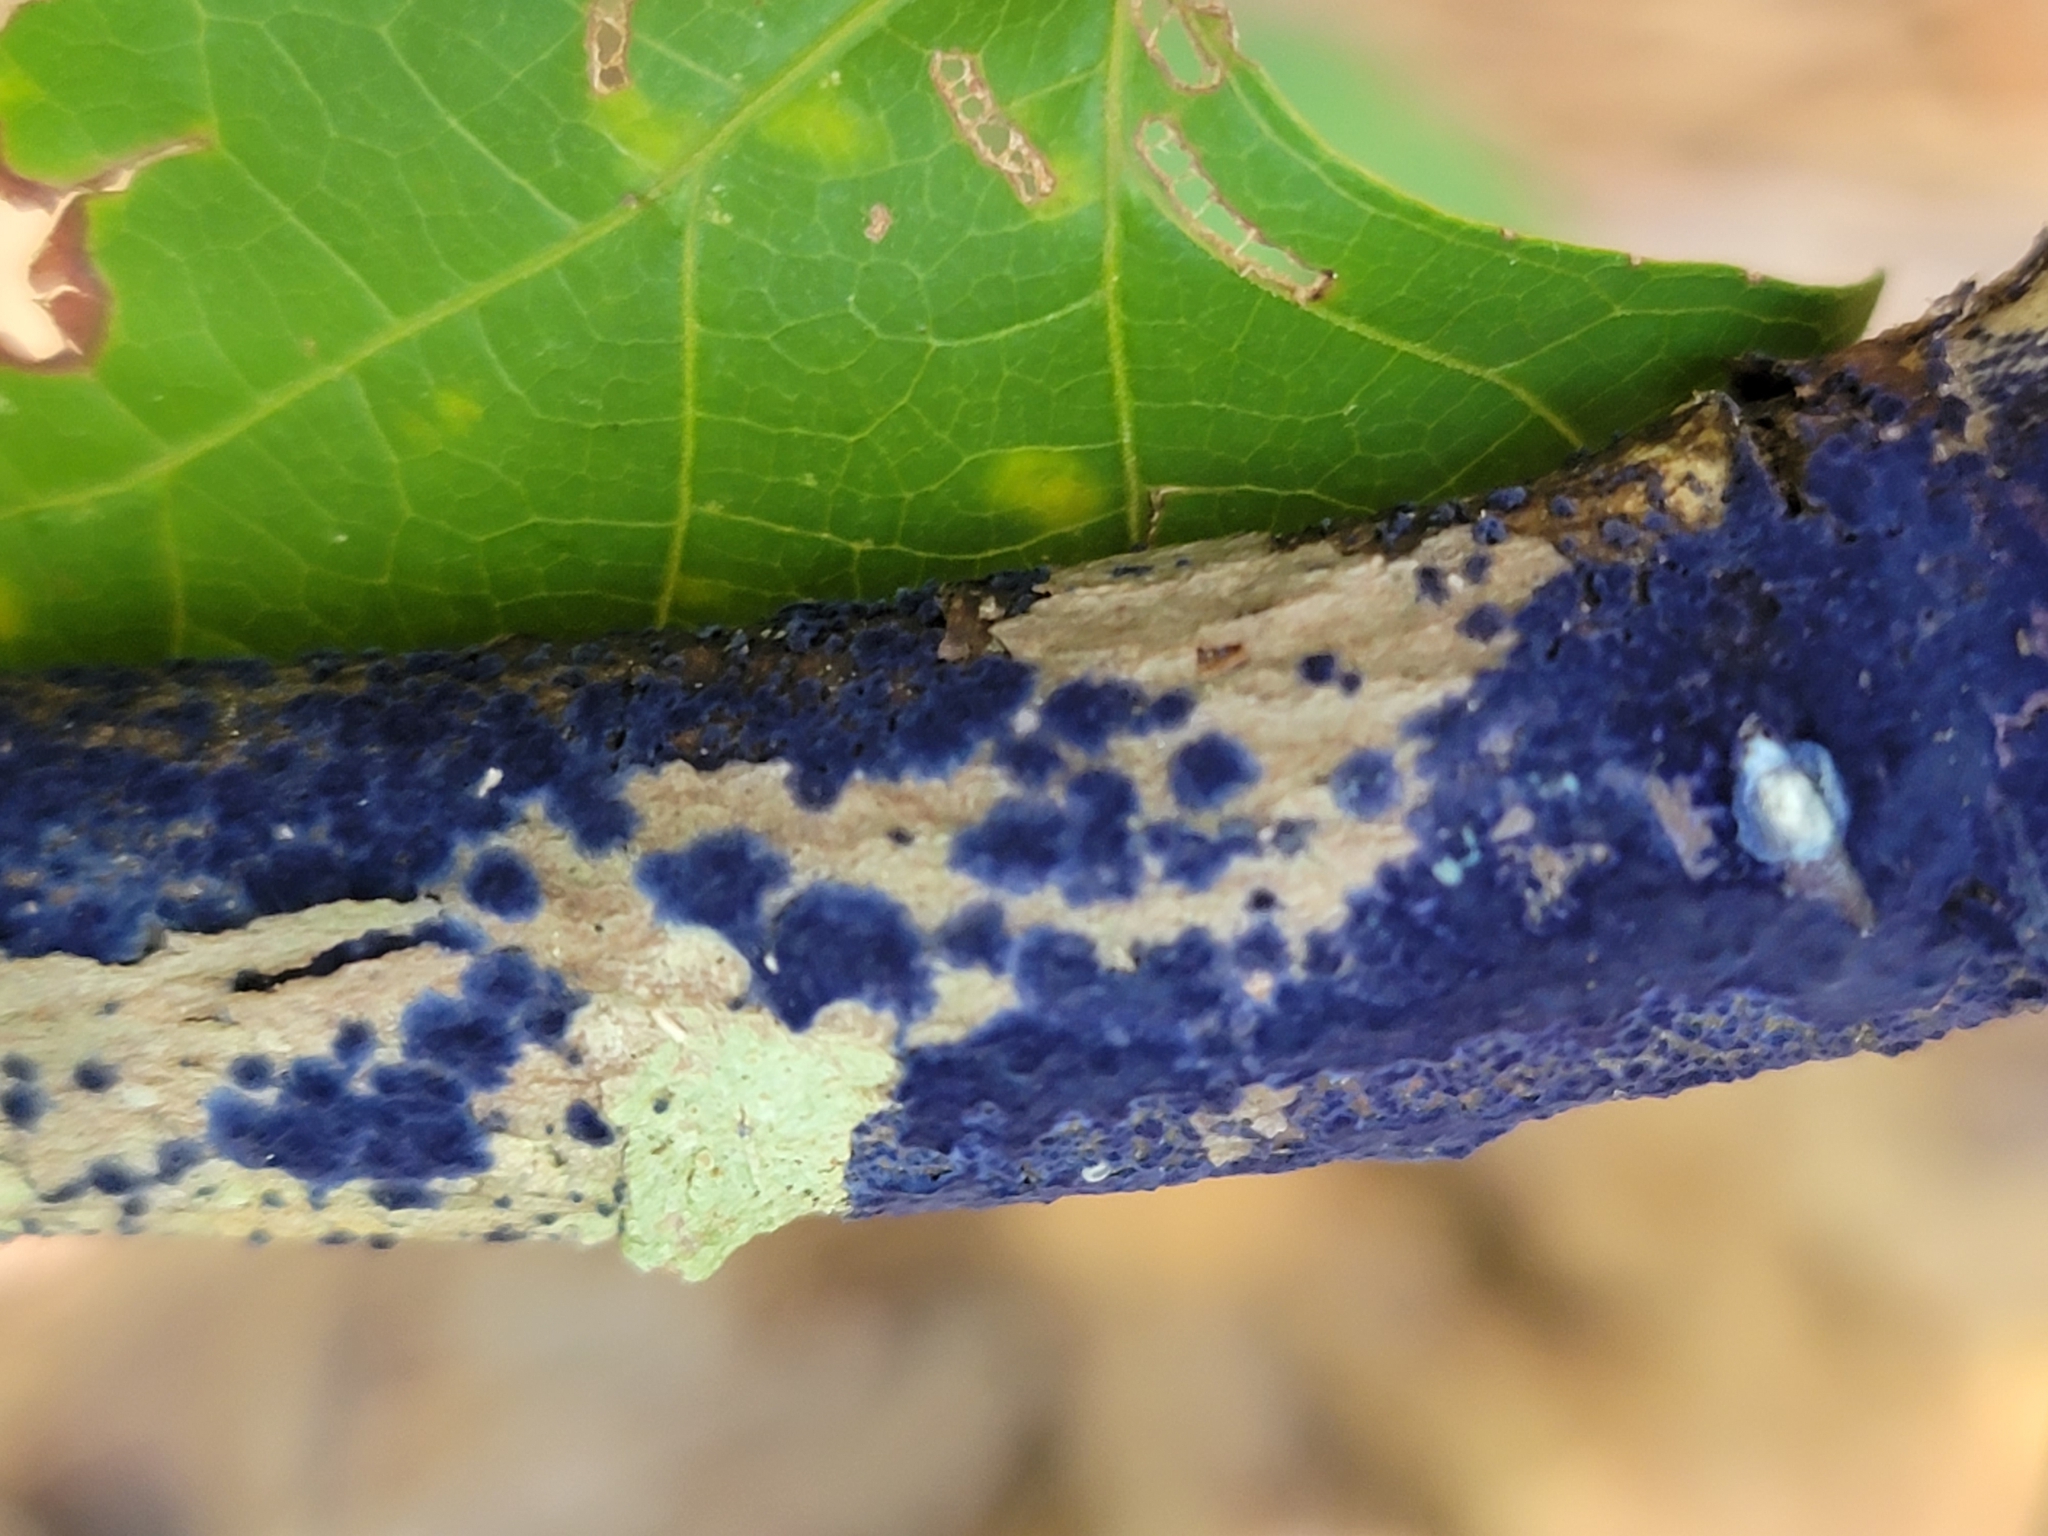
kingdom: Fungi
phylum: Basidiomycota
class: Agaricomycetes
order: Polyporales
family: Phanerochaetaceae
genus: Terana
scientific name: Terana coerulea
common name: Cobalt crust
